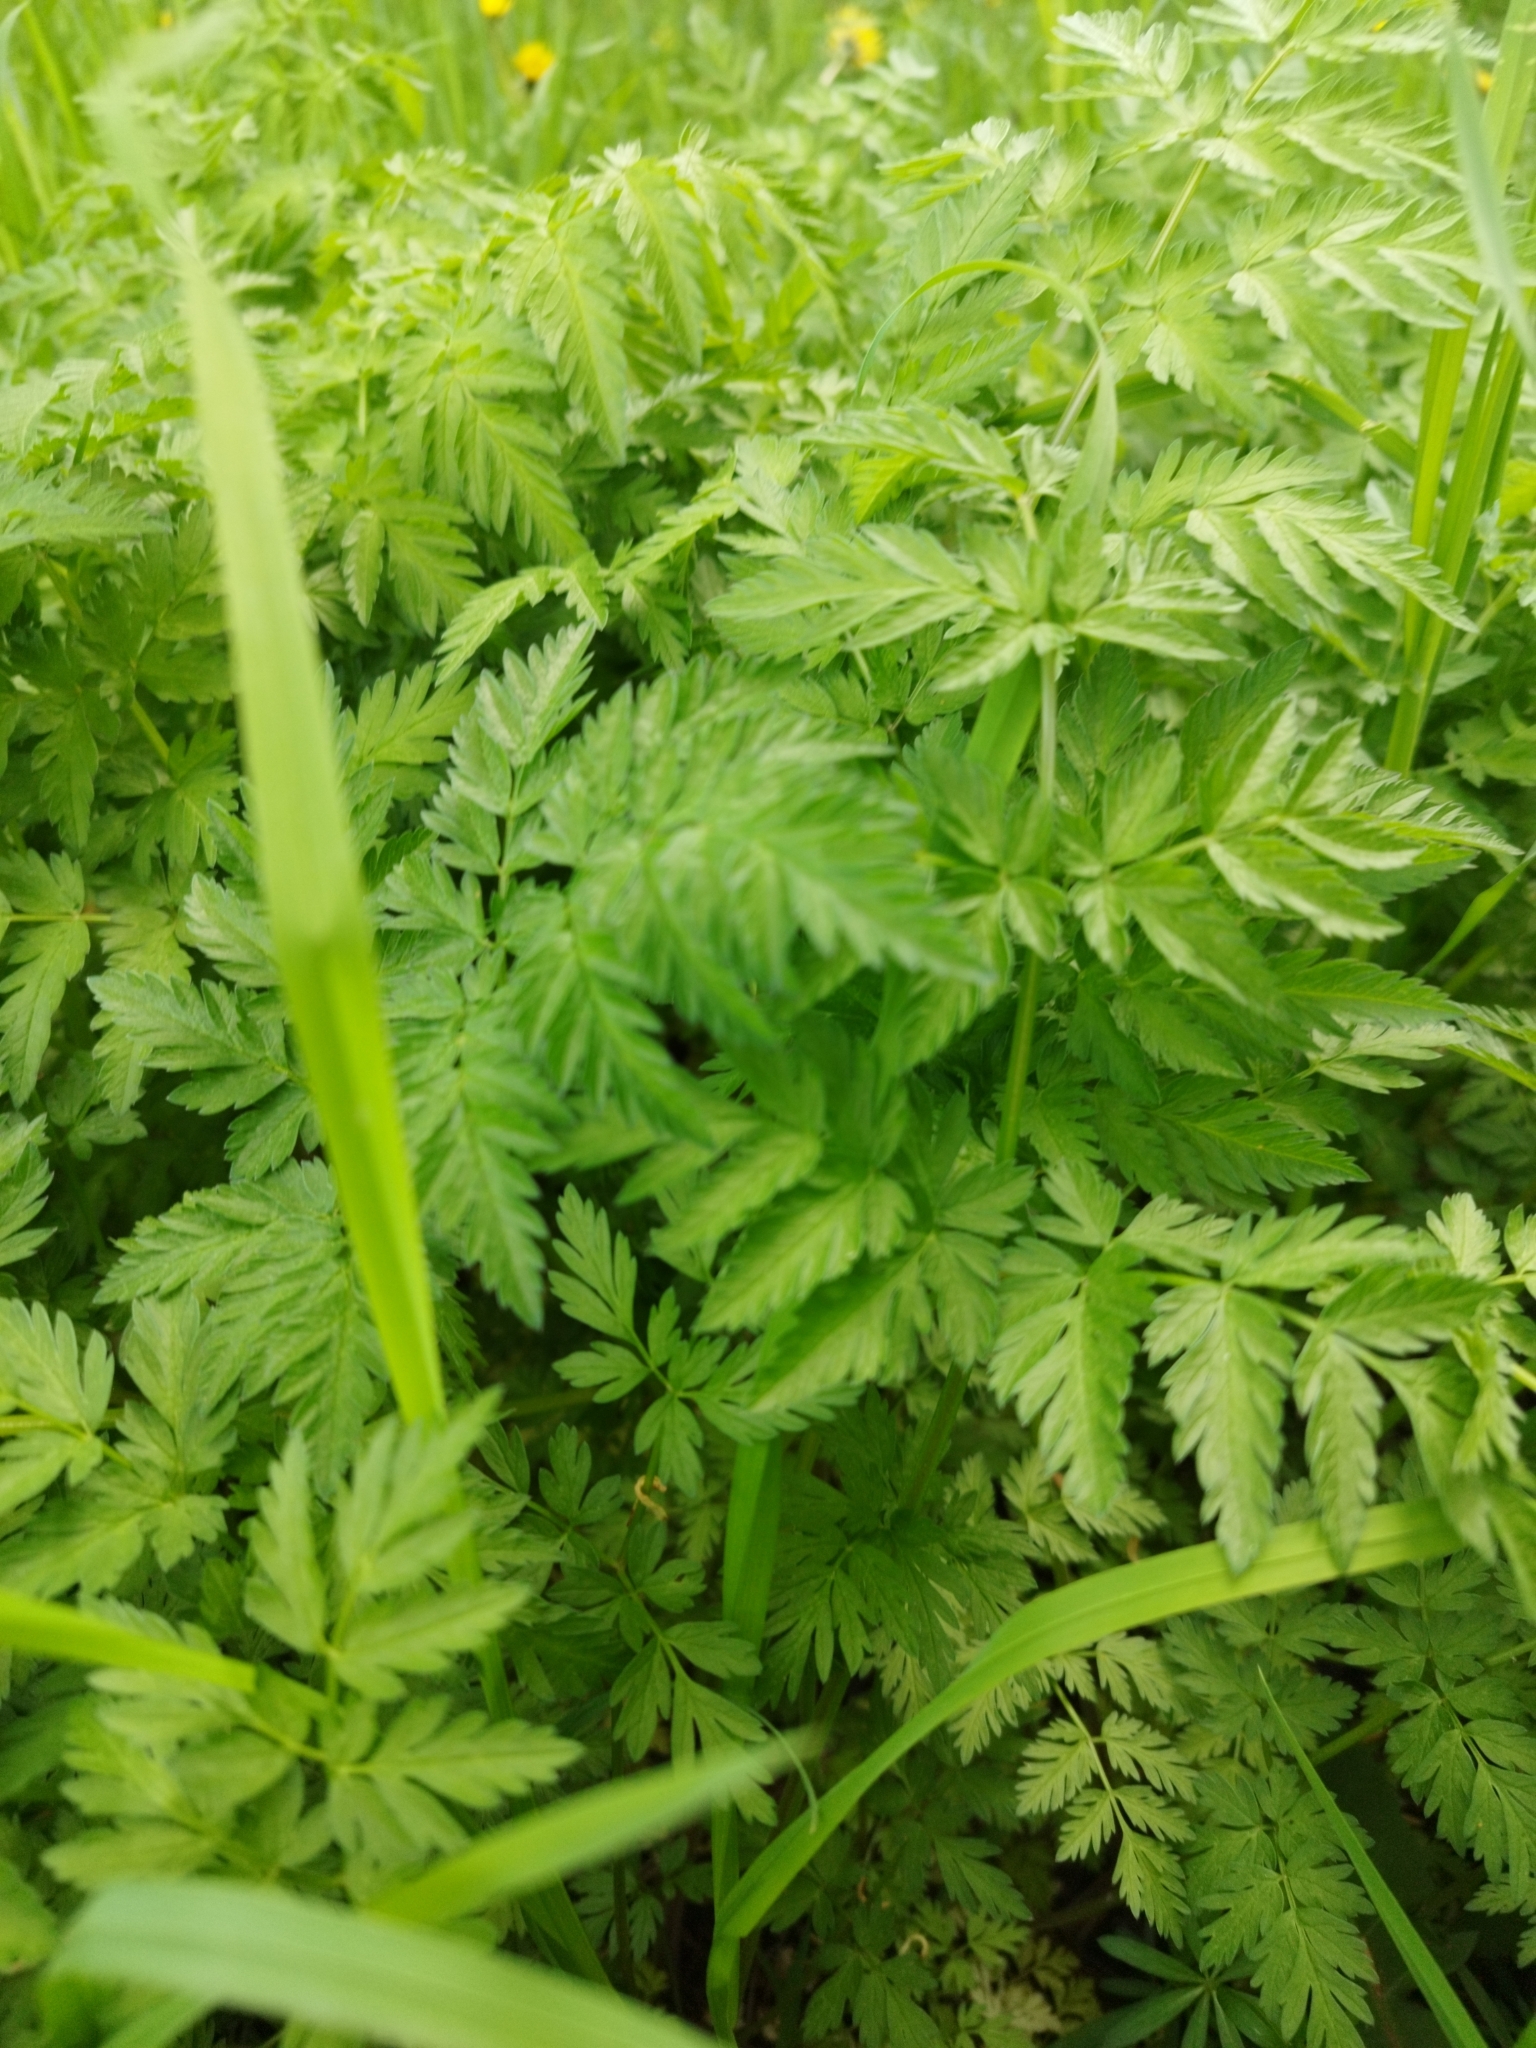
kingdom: Plantae
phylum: Tracheophyta
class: Magnoliopsida
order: Apiales
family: Apiaceae
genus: Anthriscus
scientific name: Anthriscus sylvestris
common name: Cow parsley
